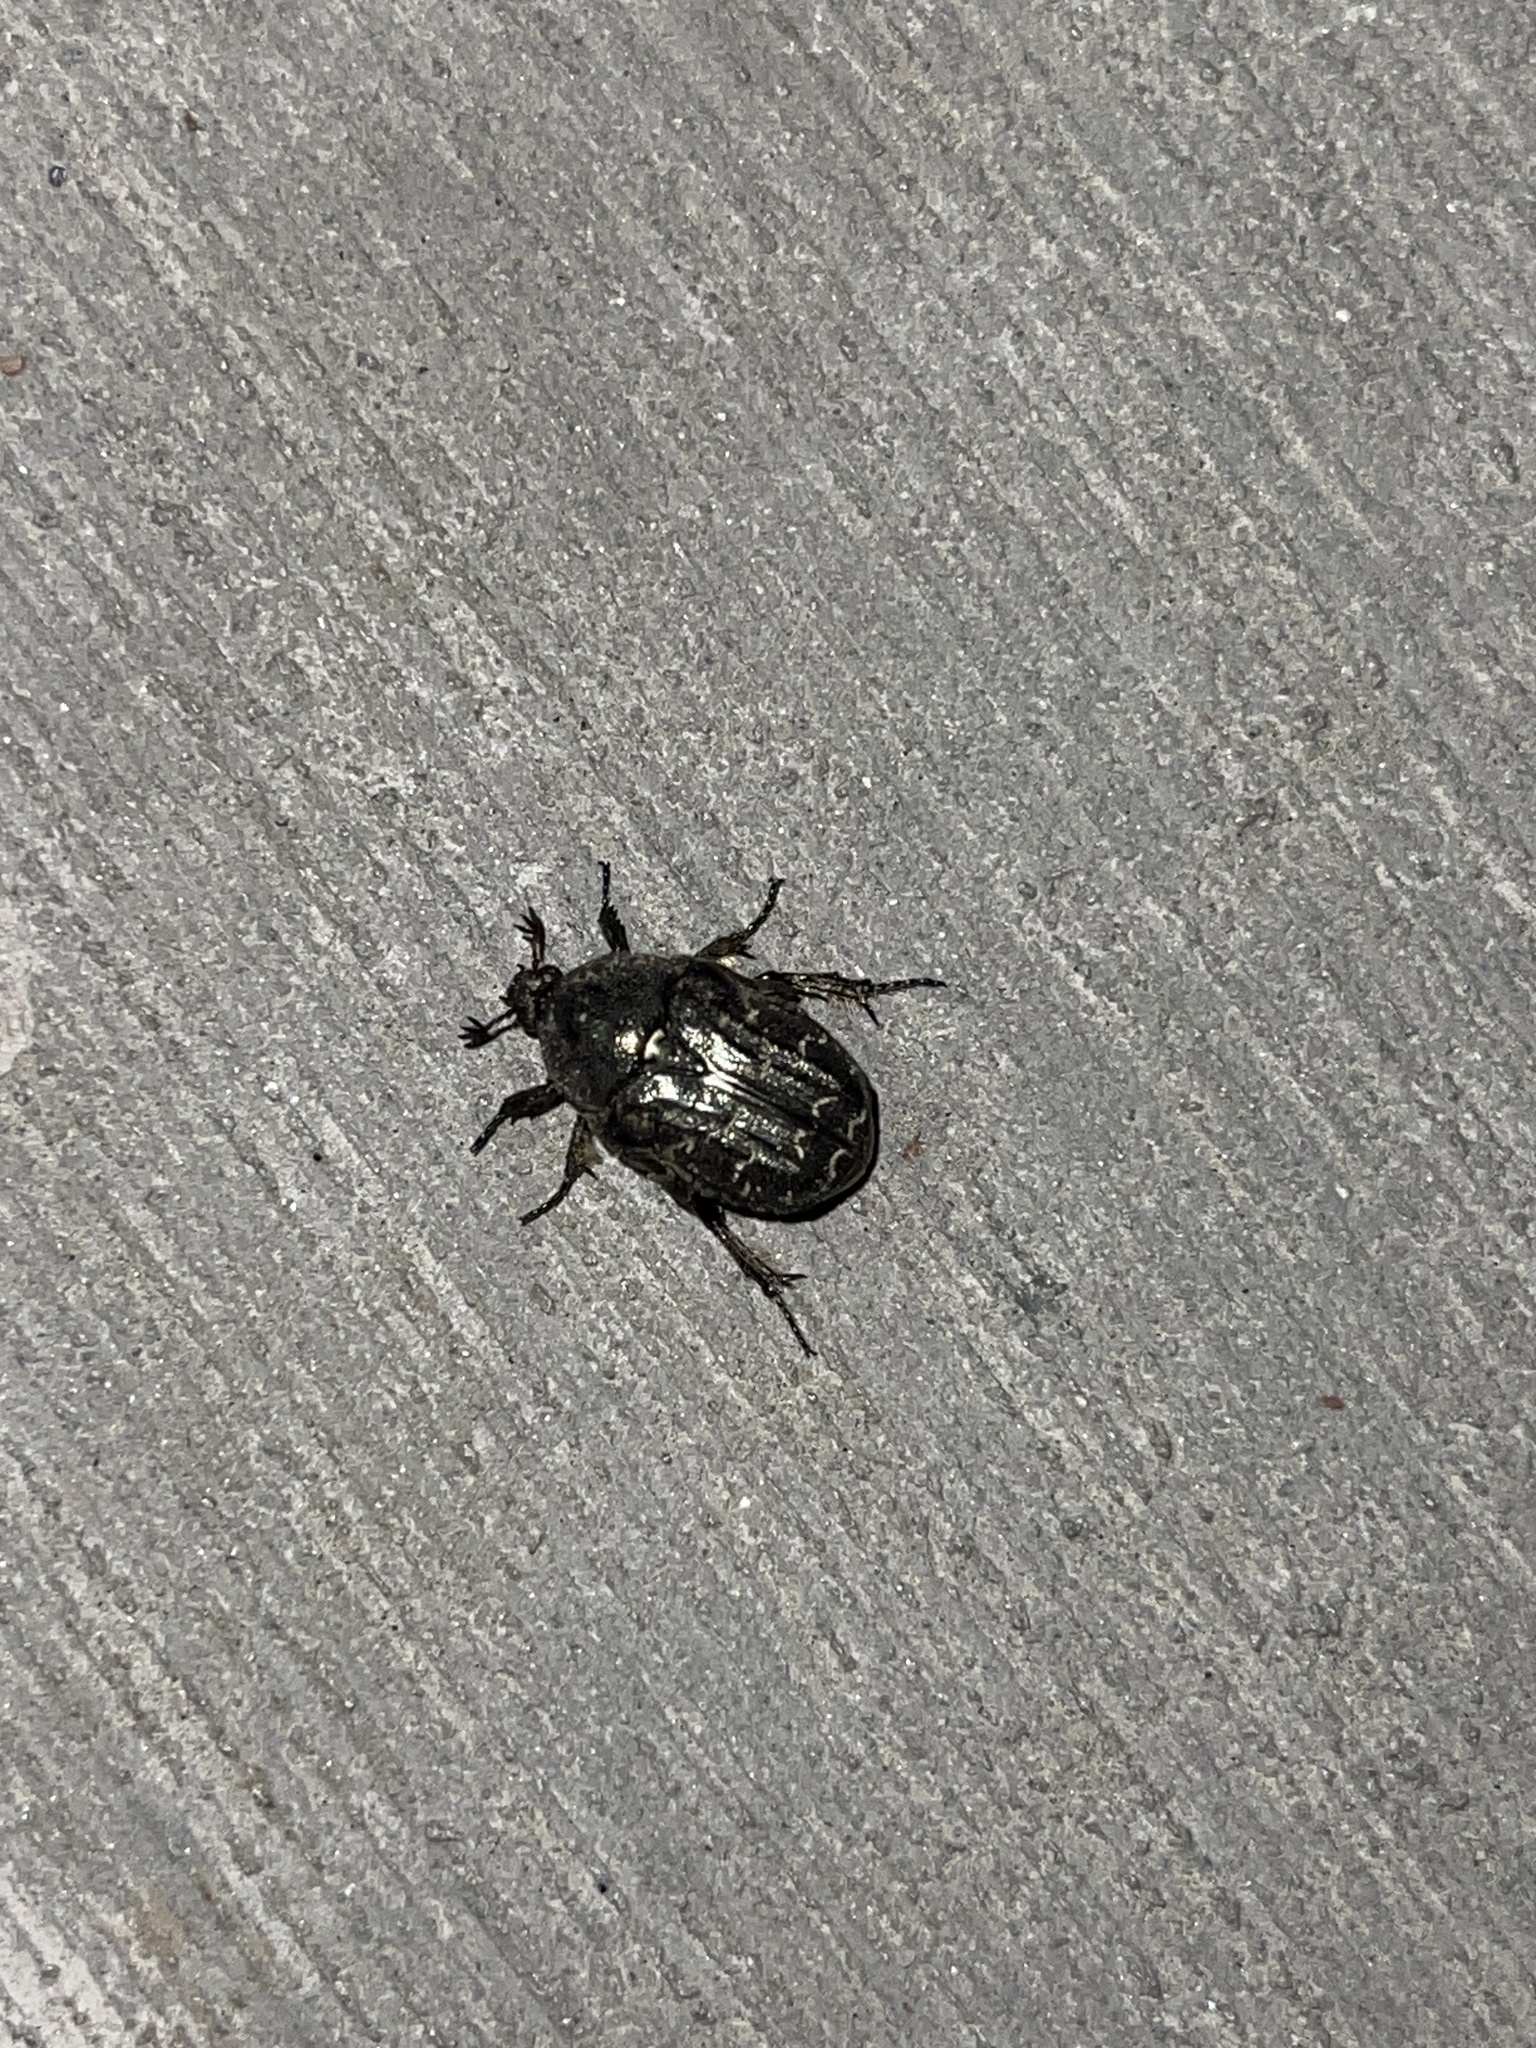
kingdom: Animalia
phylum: Arthropoda
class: Insecta
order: Coleoptera
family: Scarabaeidae
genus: Euphoria
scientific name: Euphoria sepulcralis
